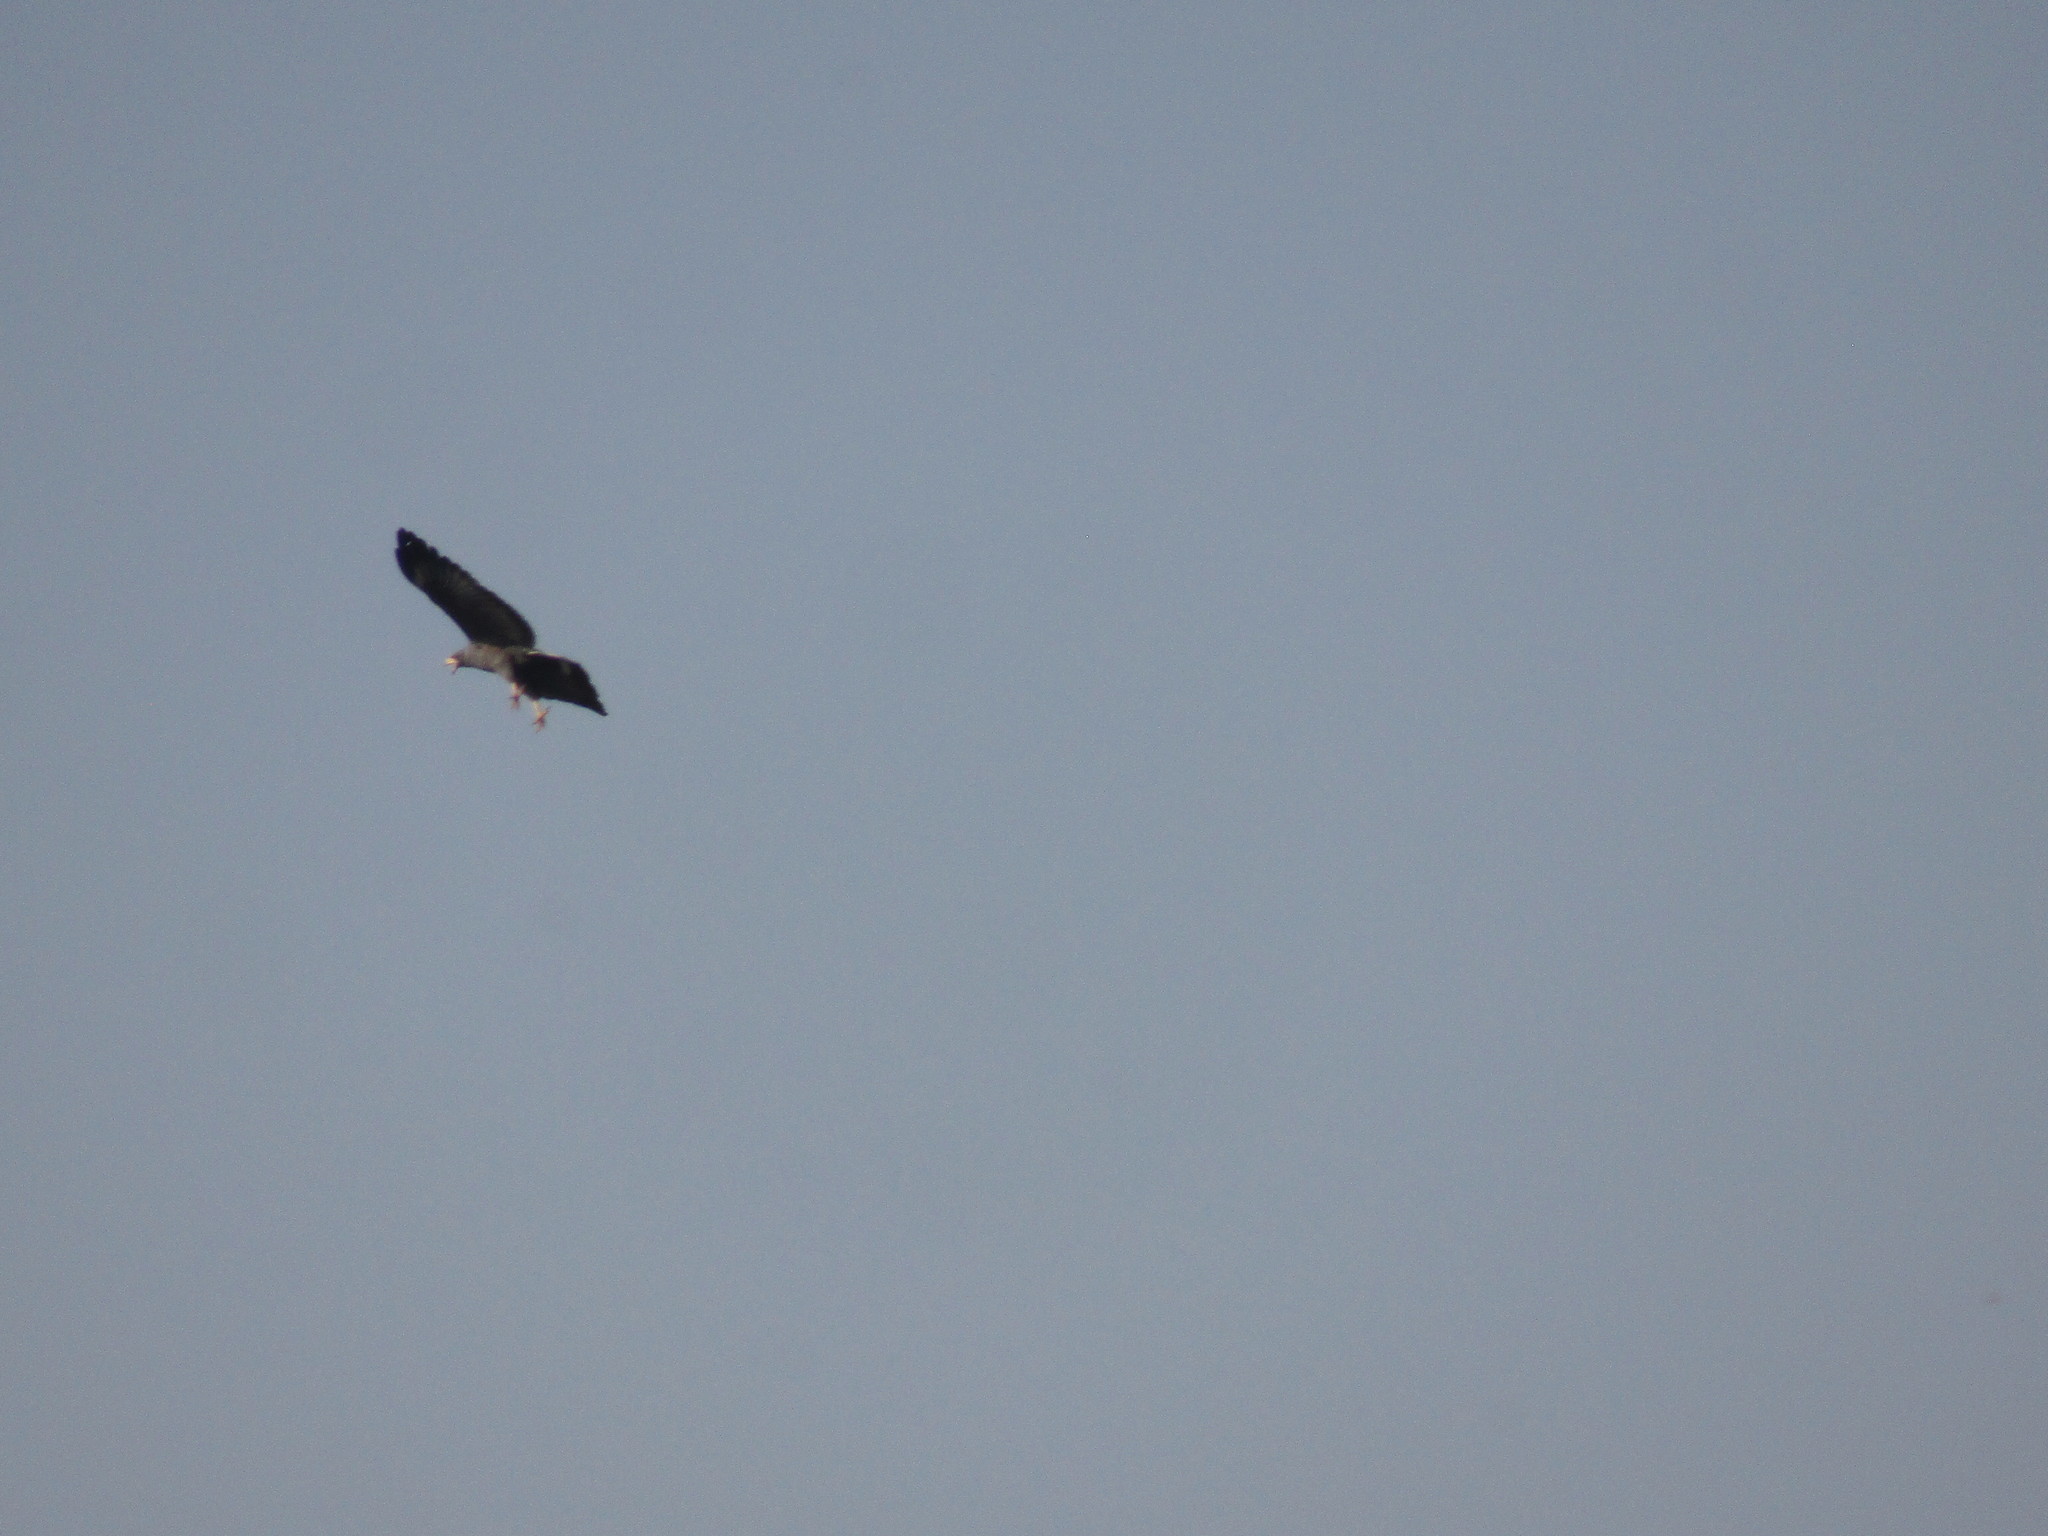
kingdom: Animalia
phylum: Chordata
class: Aves
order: Accipitriformes
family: Accipitridae
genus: Buteogallus
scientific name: Buteogallus anthracinus
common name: Common black hawk
